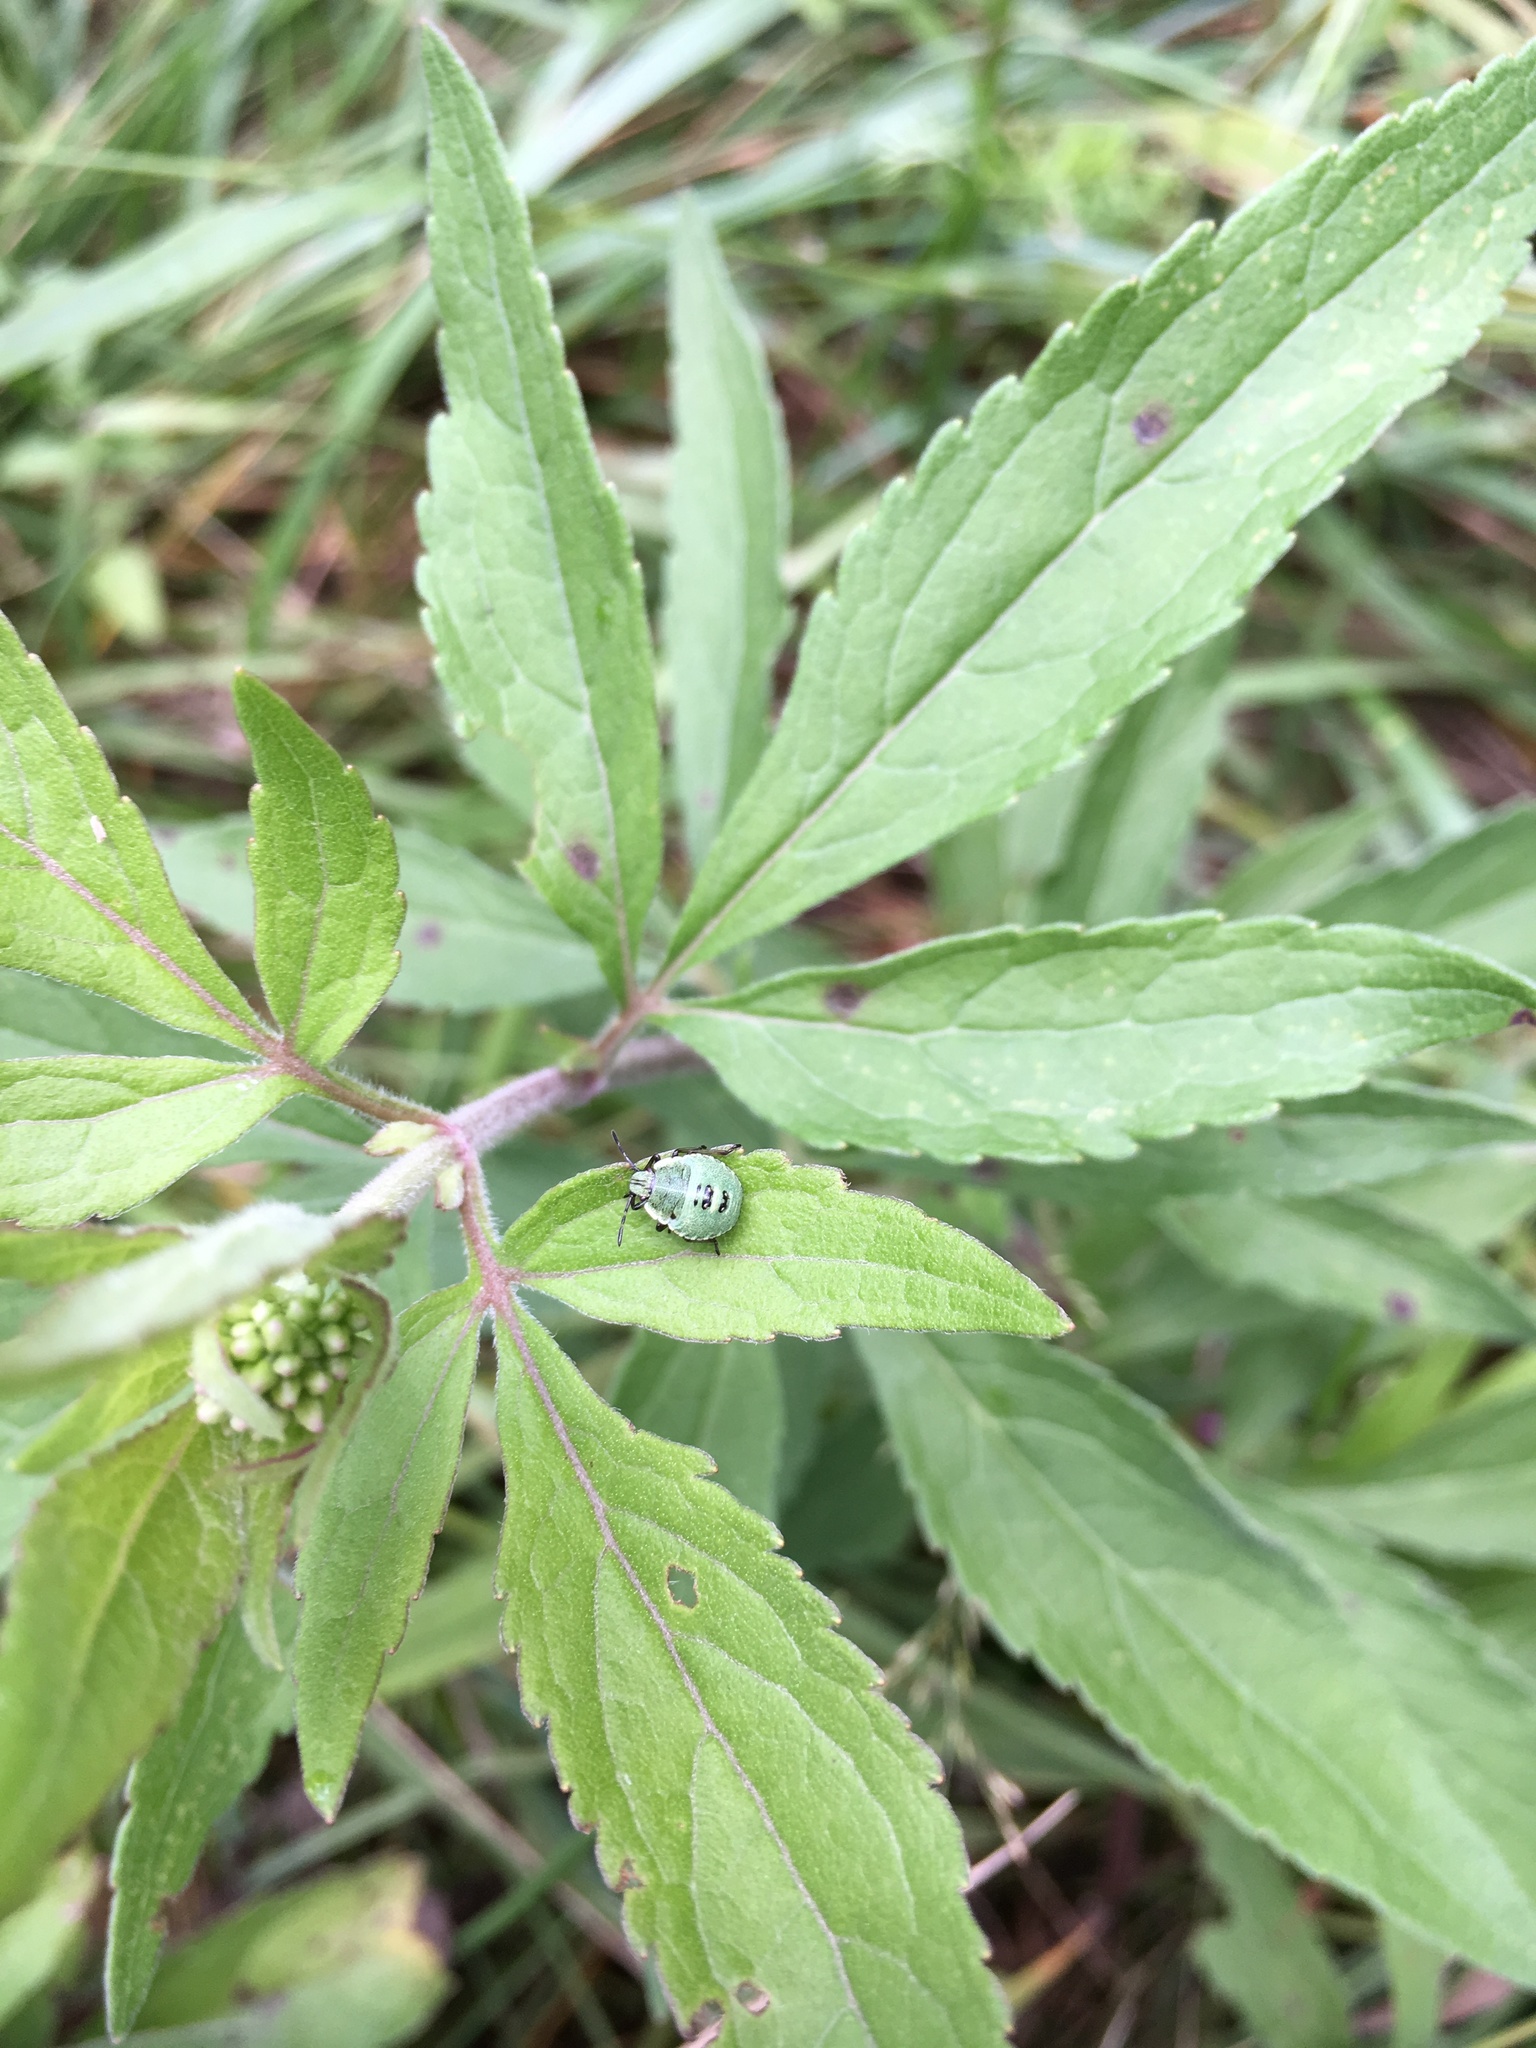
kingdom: Plantae
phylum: Tracheophyta
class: Magnoliopsida
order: Asterales
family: Asteraceae
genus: Eupatorium
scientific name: Eupatorium cannabinum
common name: Hemp-agrimony
